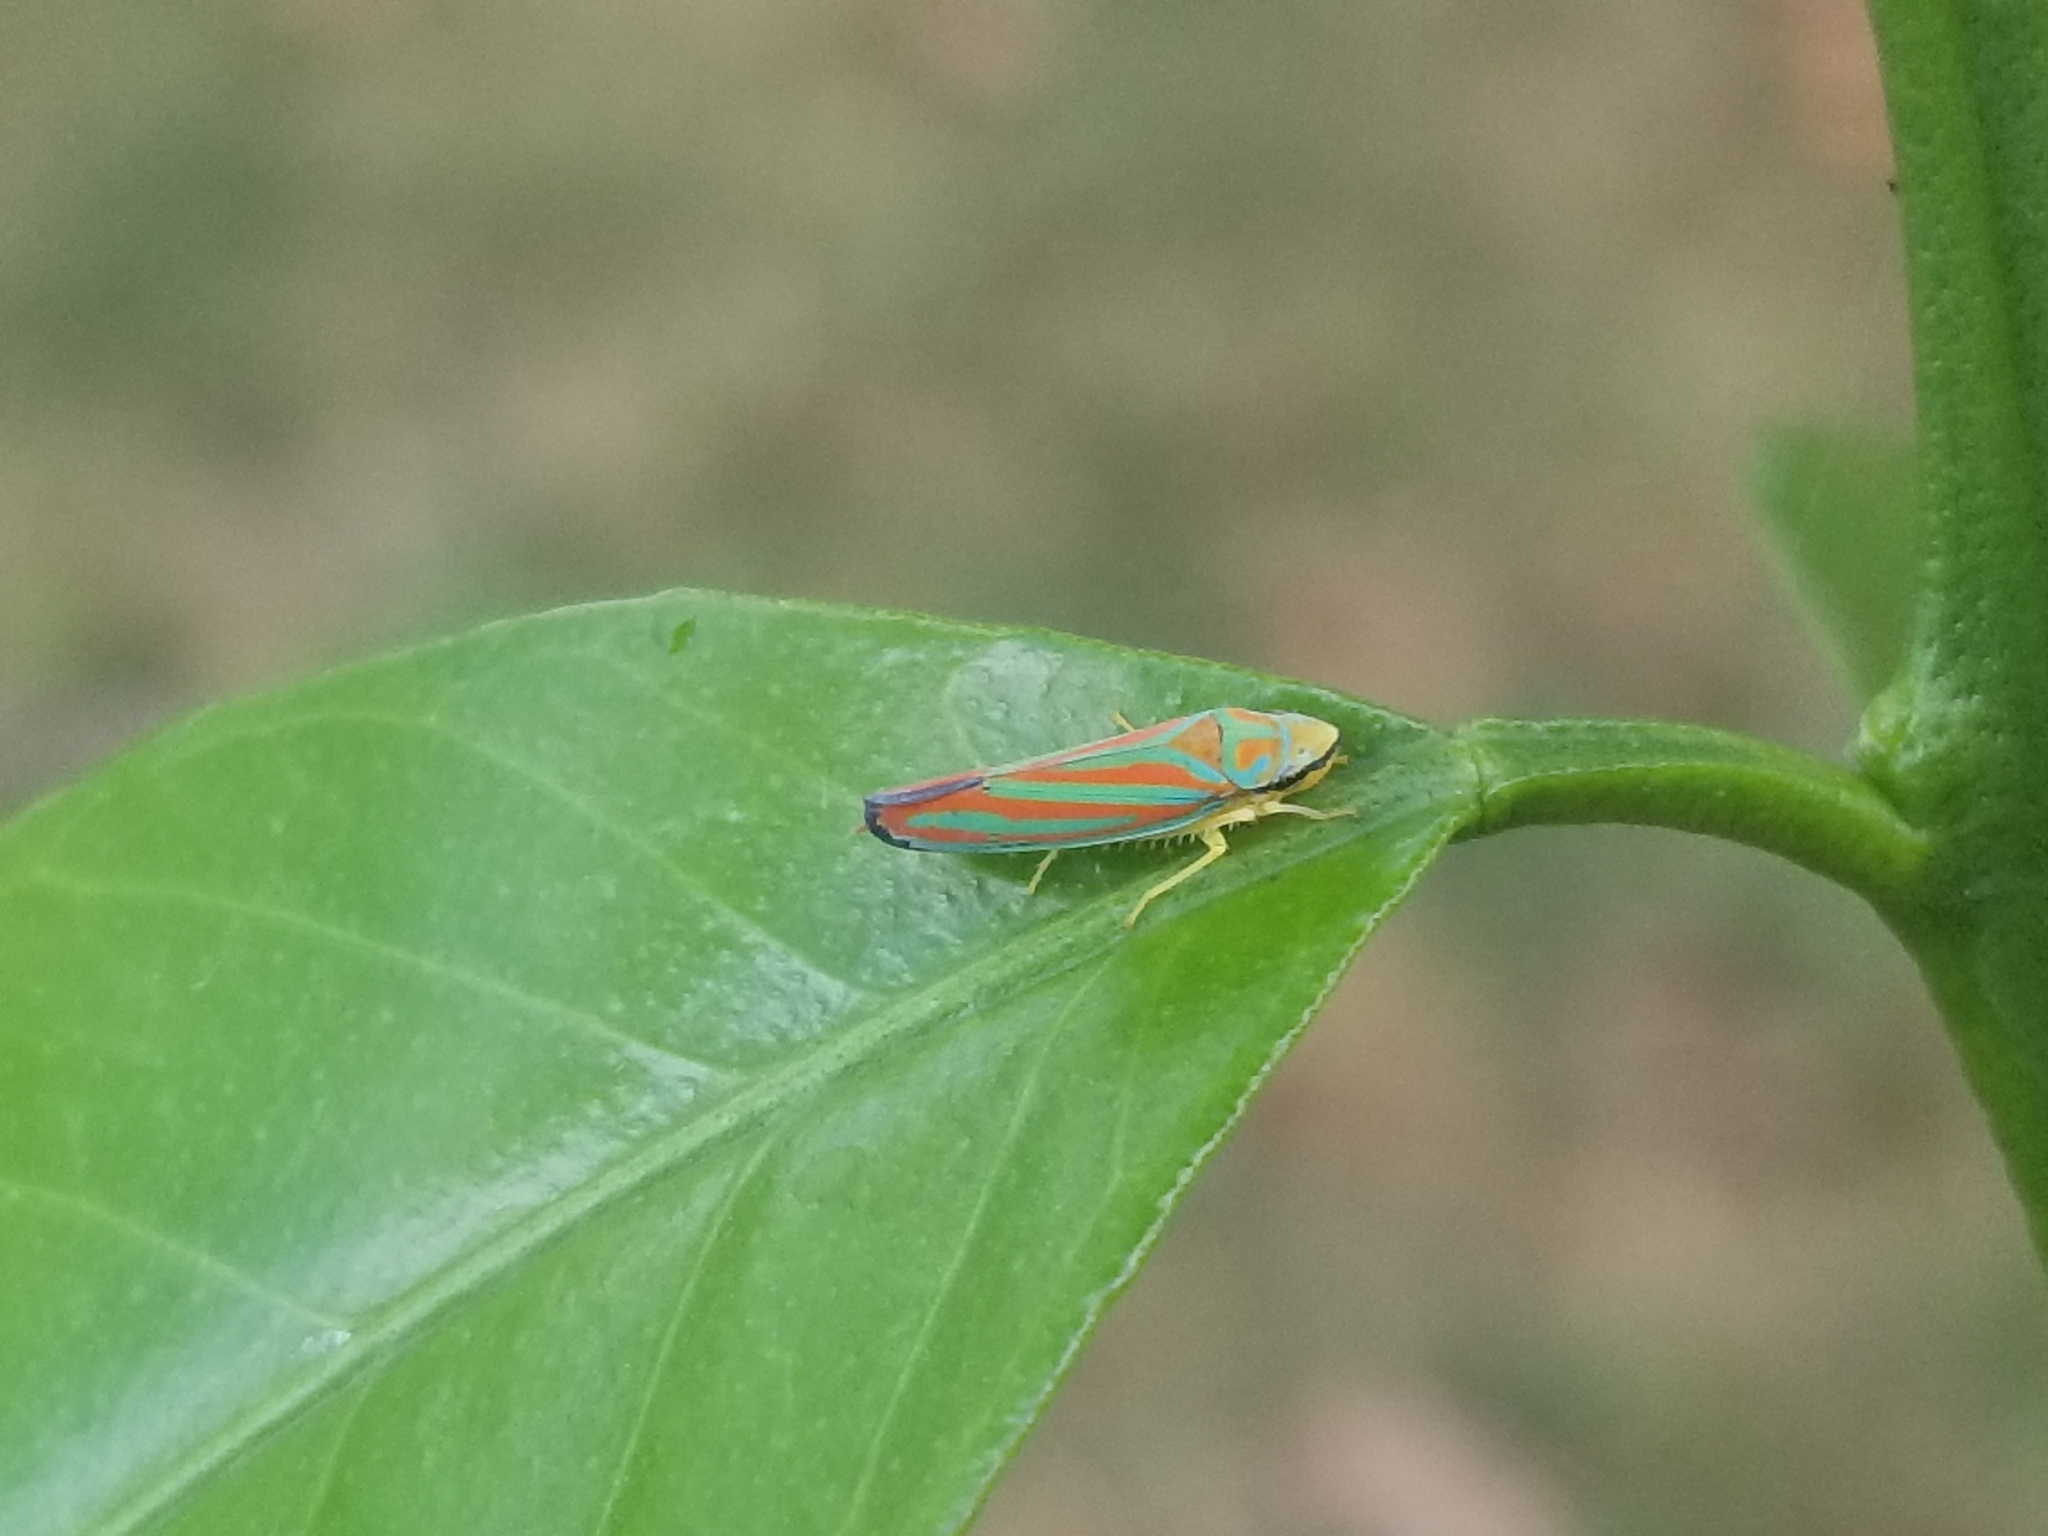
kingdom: Animalia
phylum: Arthropoda
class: Insecta
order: Hemiptera
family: Cicadellidae
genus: Graphocephala
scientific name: Graphocephala coccinea
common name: Candy-striped leafhopper
